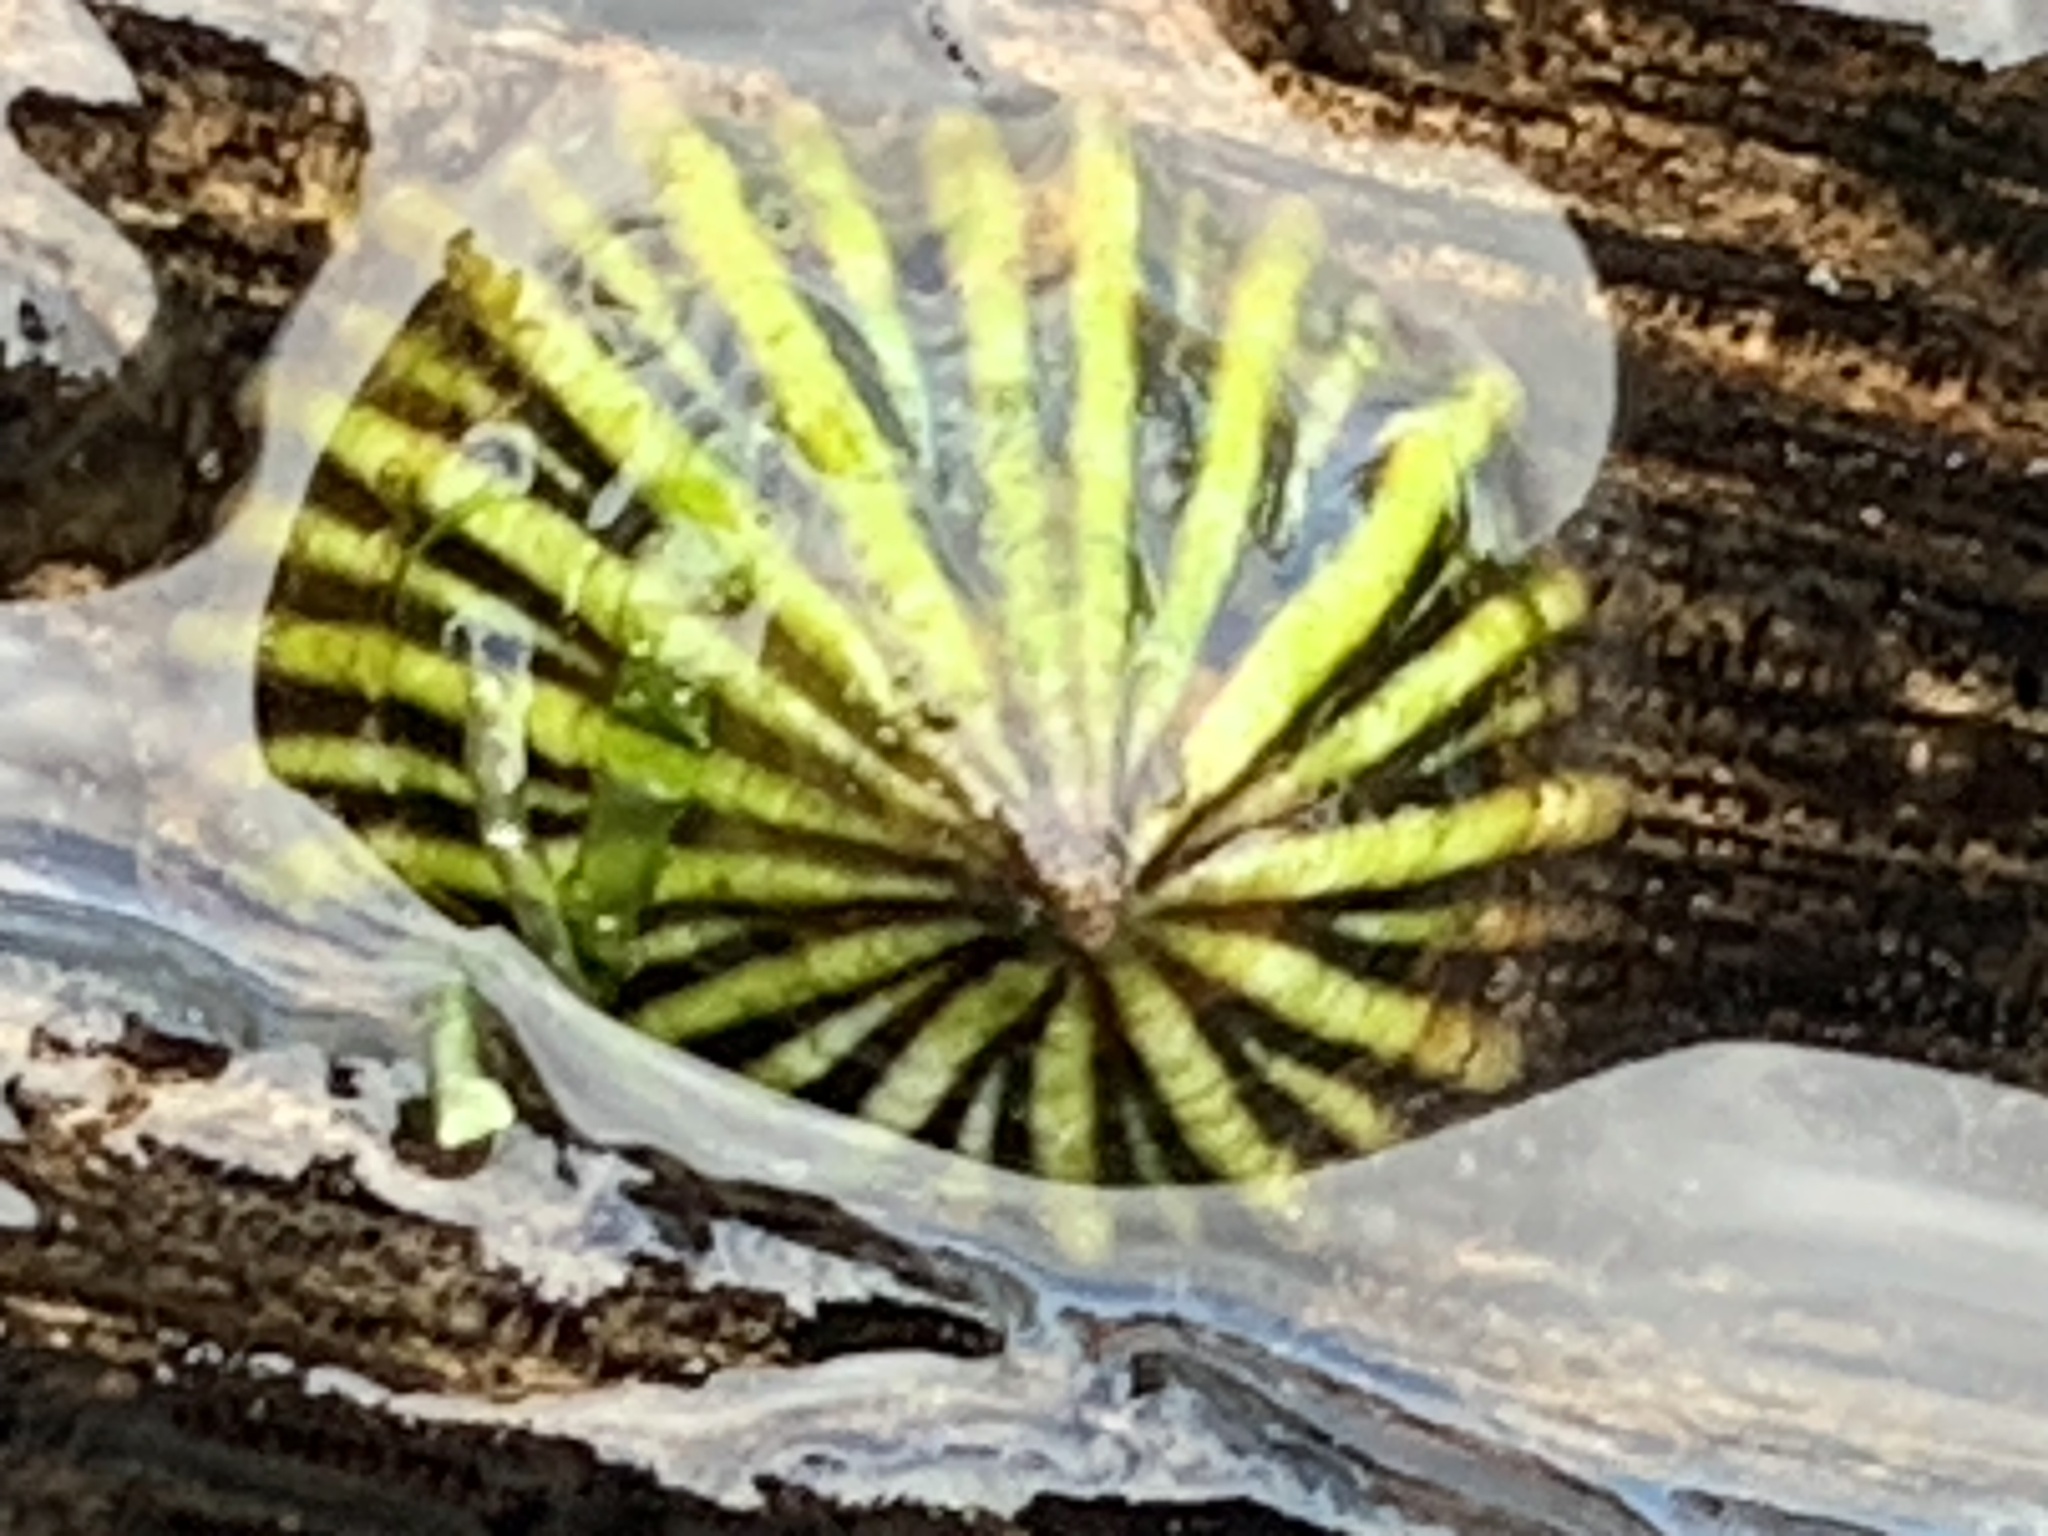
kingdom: Animalia
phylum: Mollusca
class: Gastropoda
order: Siphonariida
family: Siphonariidae
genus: Siphonaria
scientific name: Siphonaria diemenensis
